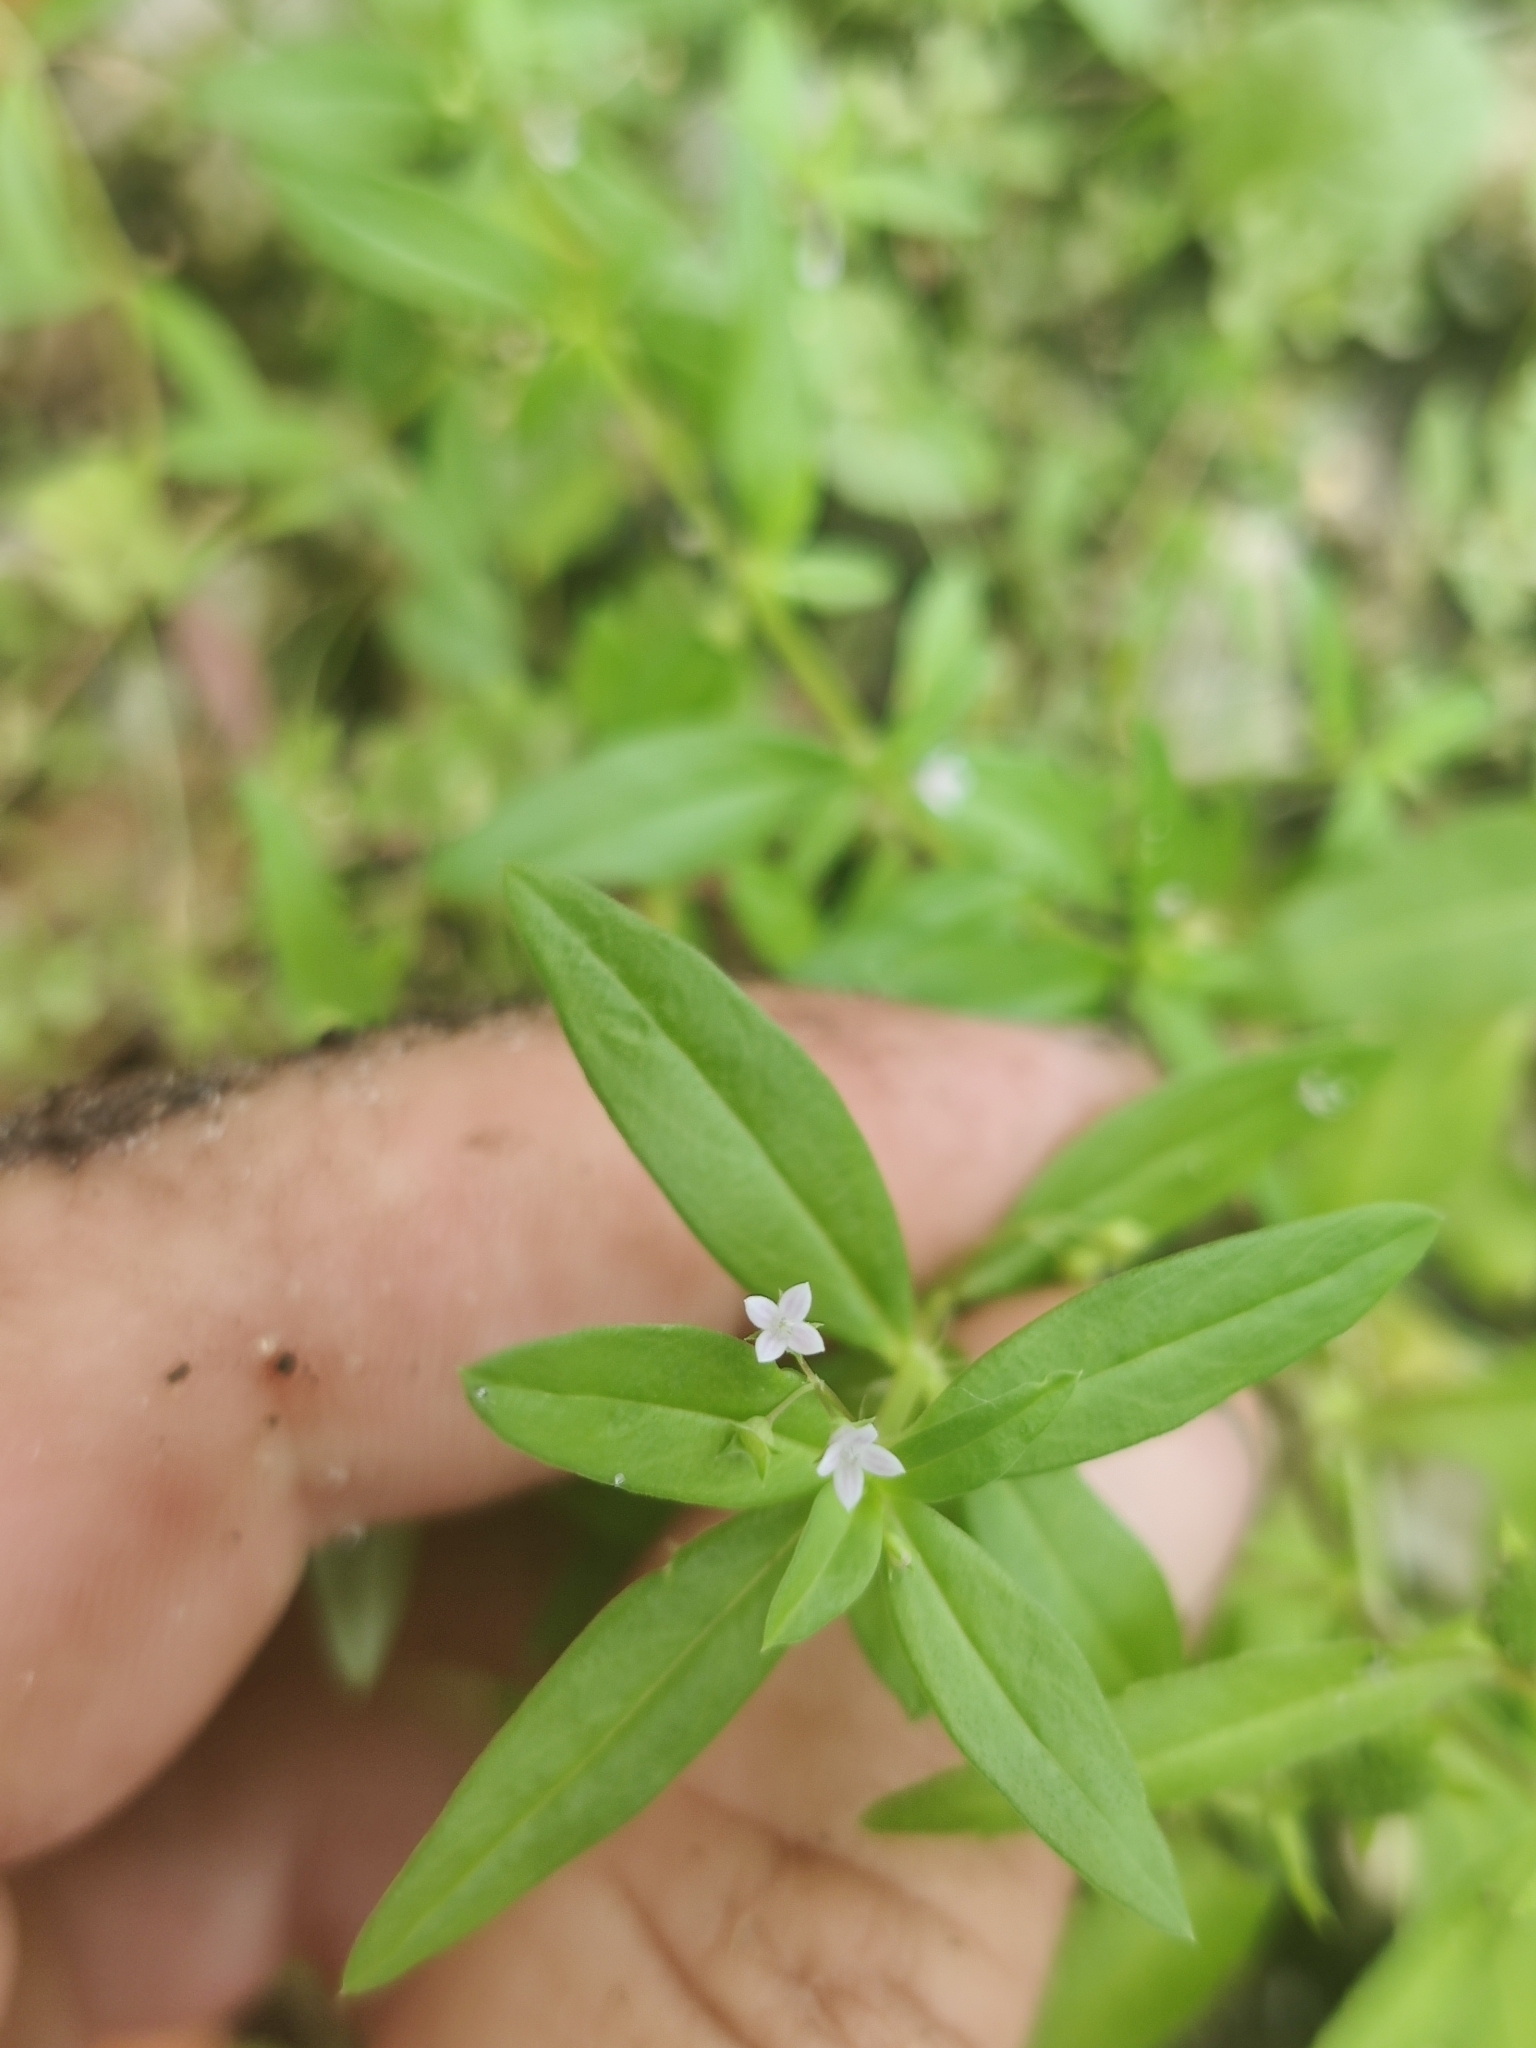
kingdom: Plantae
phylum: Tracheophyta
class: Magnoliopsida
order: Gentianales
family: Rubiaceae
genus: Oldenlandia
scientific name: Oldenlandia corymbosa
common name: Flat-top mille graines
